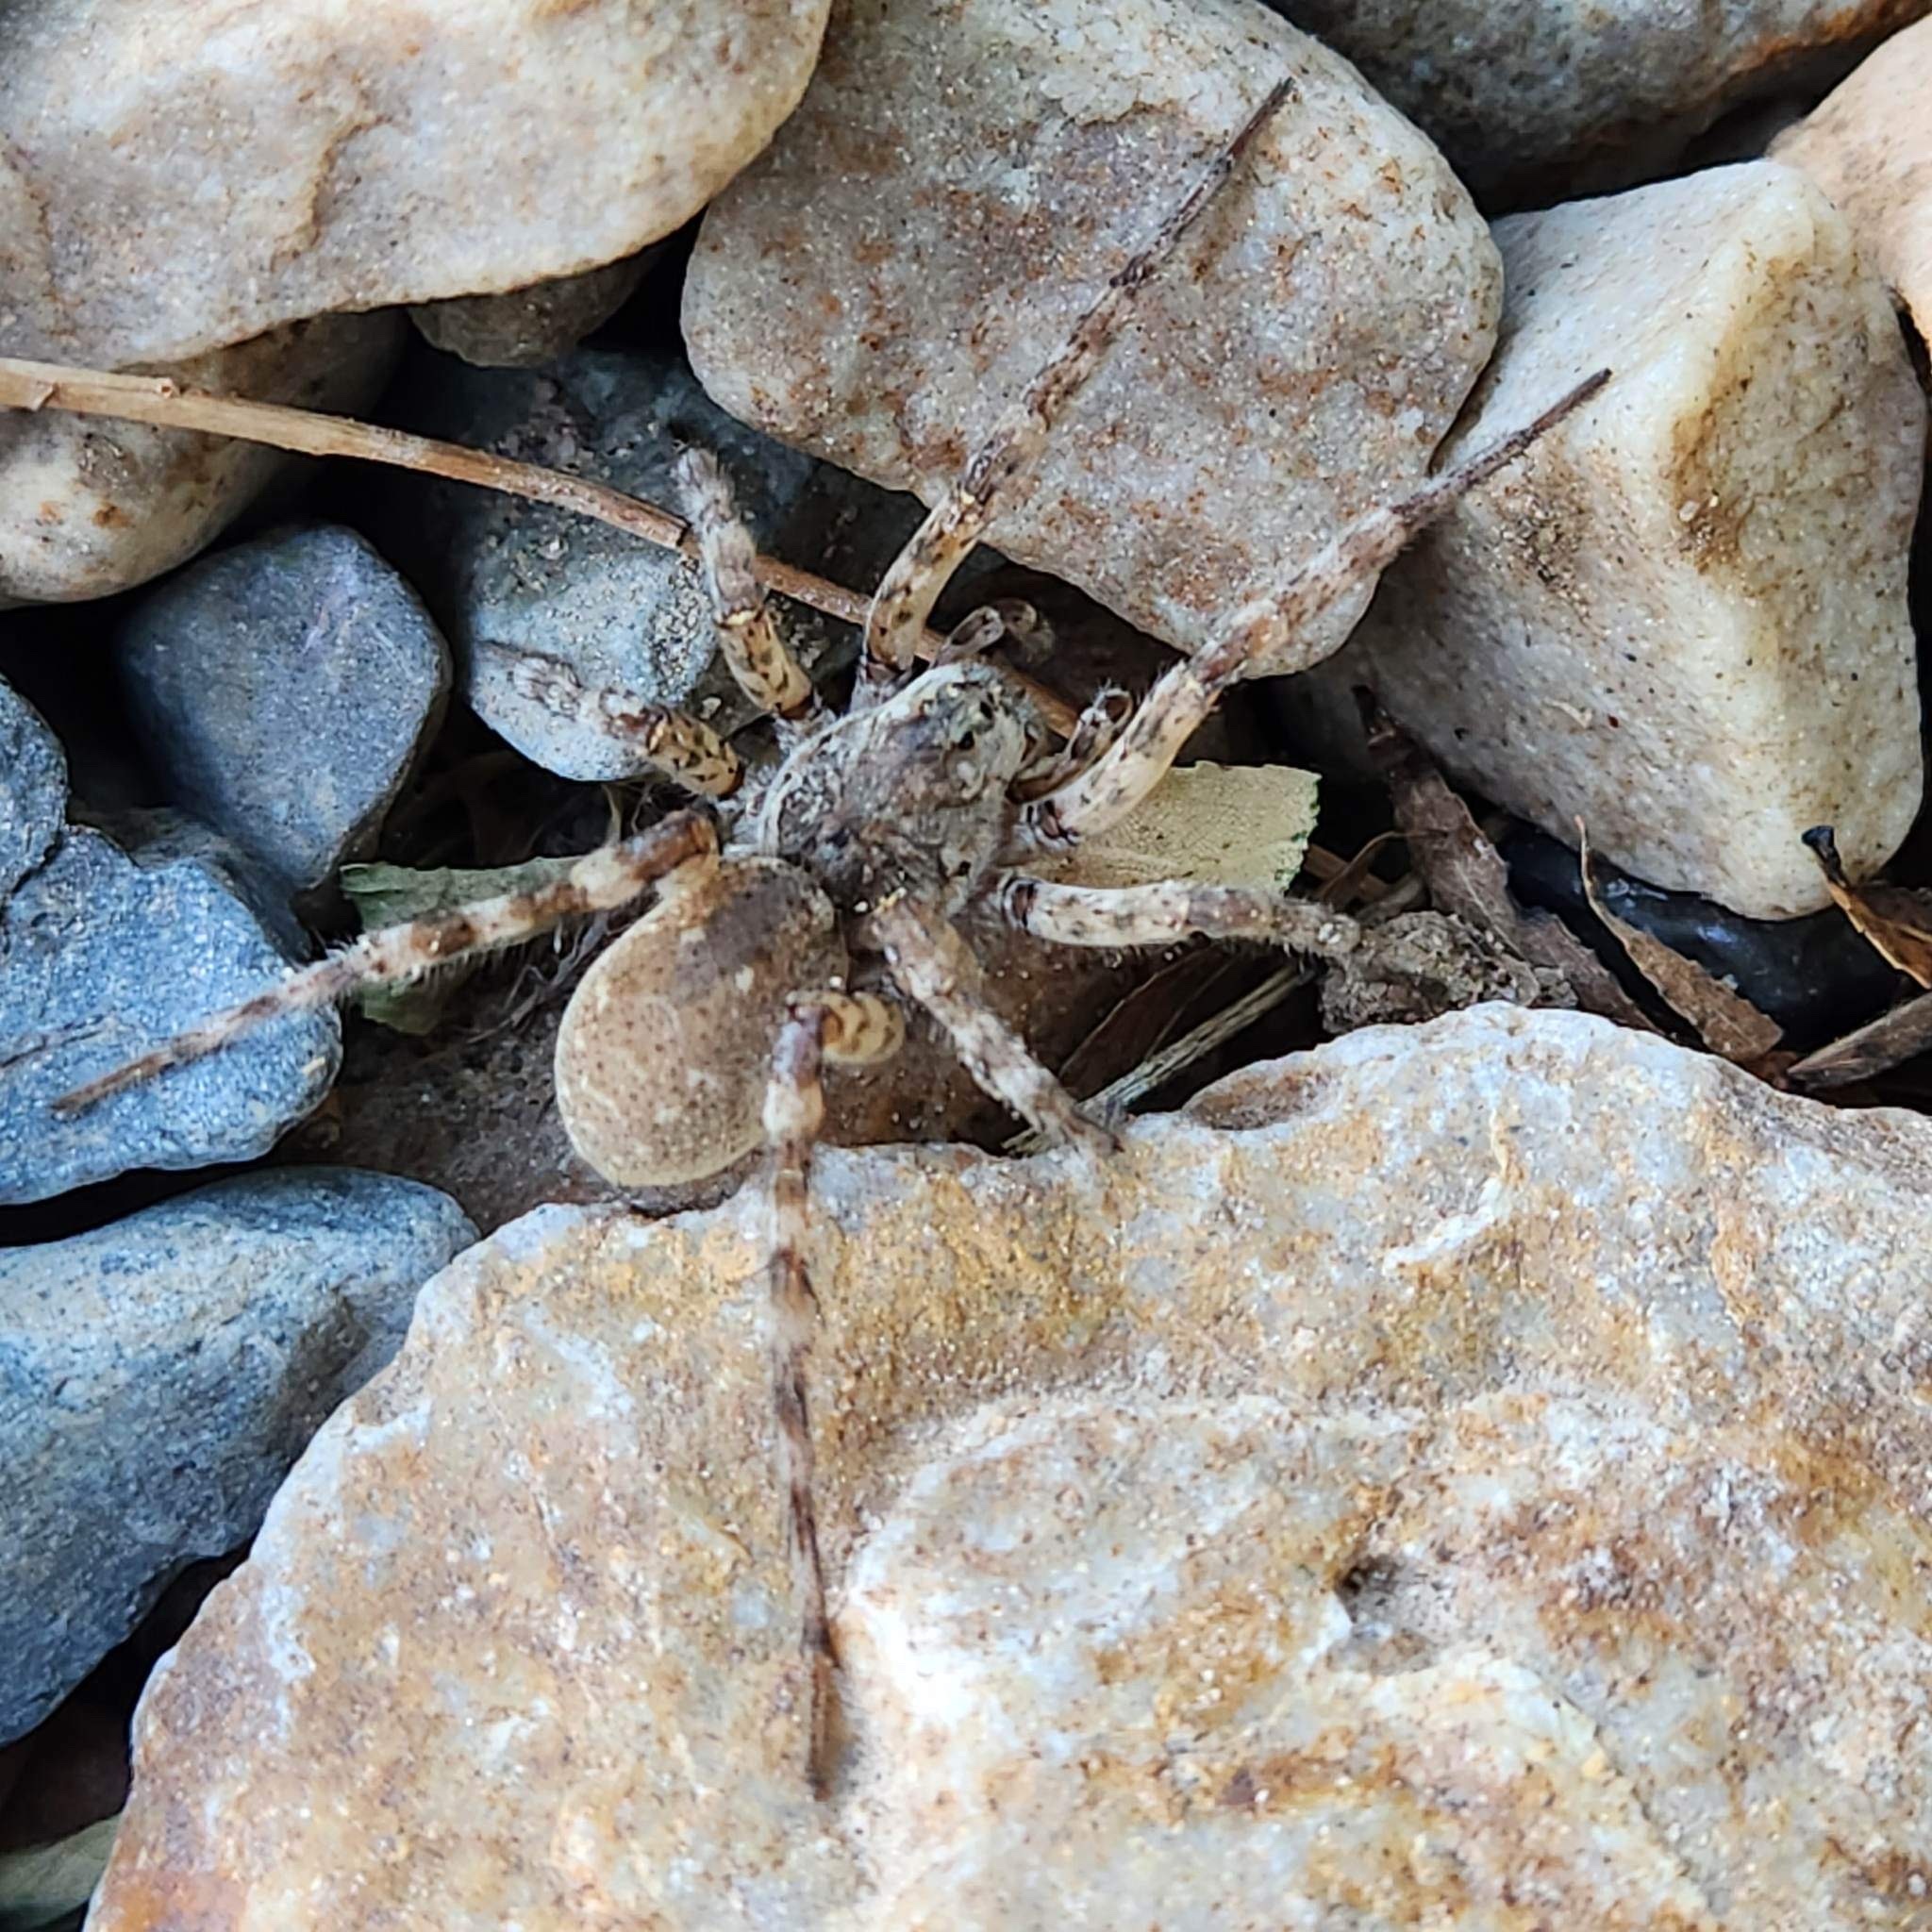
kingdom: Animalia
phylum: Arthropoda
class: Arachnida
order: Araneae
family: Lycosidae
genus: Arctosa
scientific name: Arctosa littoralis
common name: Wolf spiders
